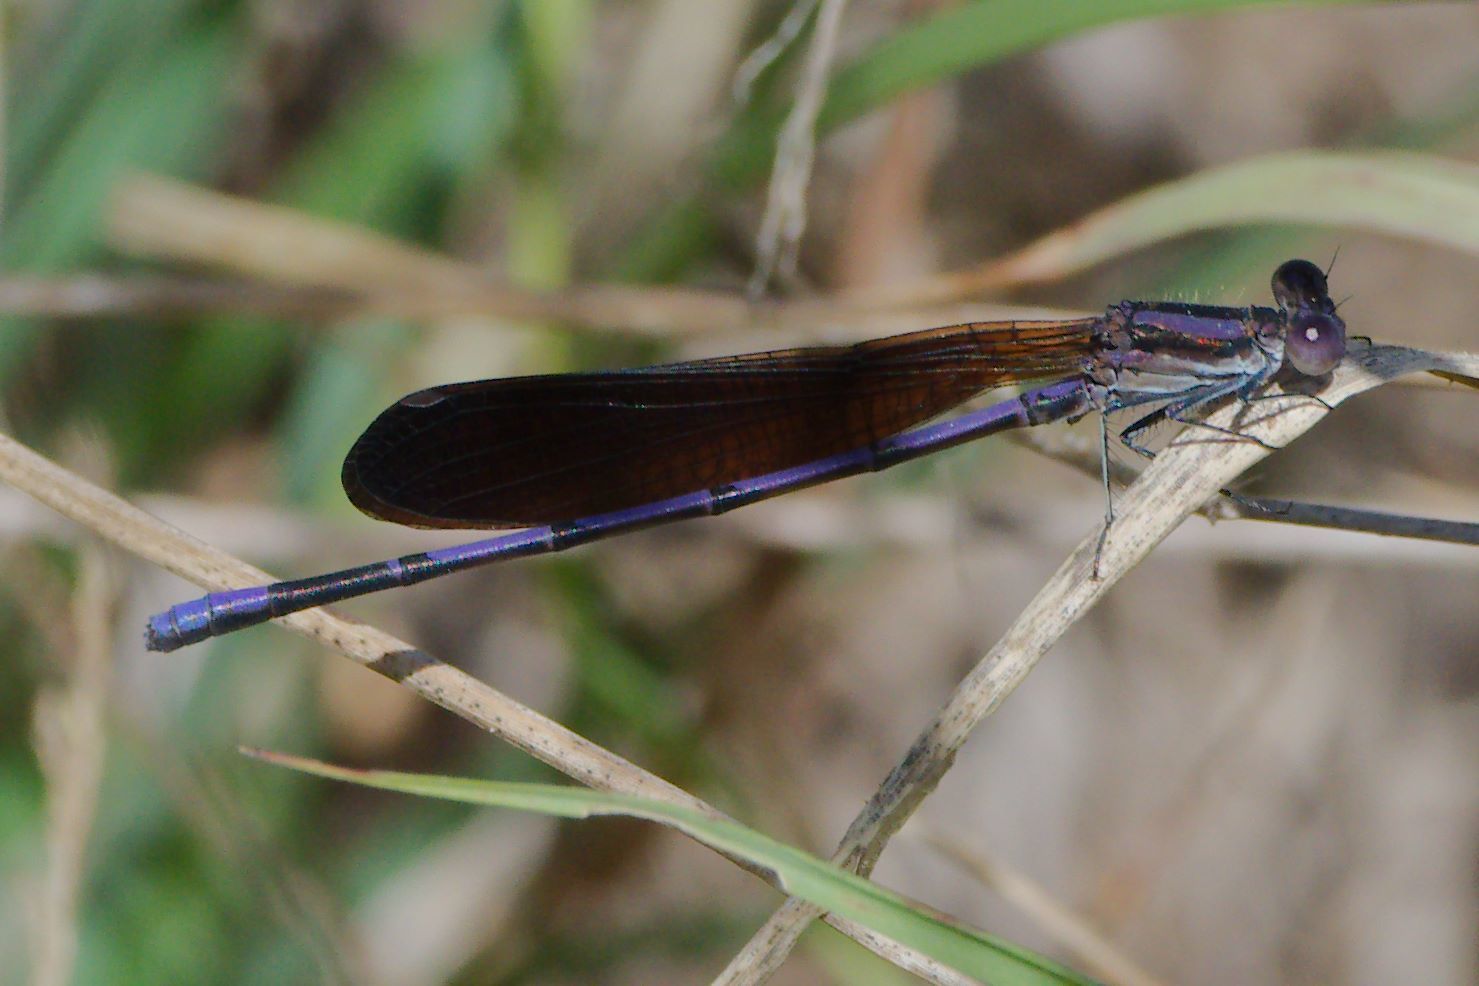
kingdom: Animalia
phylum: Arthropoda
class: Insecta
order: Odonata
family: Coenagrionidae
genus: Argia
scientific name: Argia fumipennis
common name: Variable dancer
